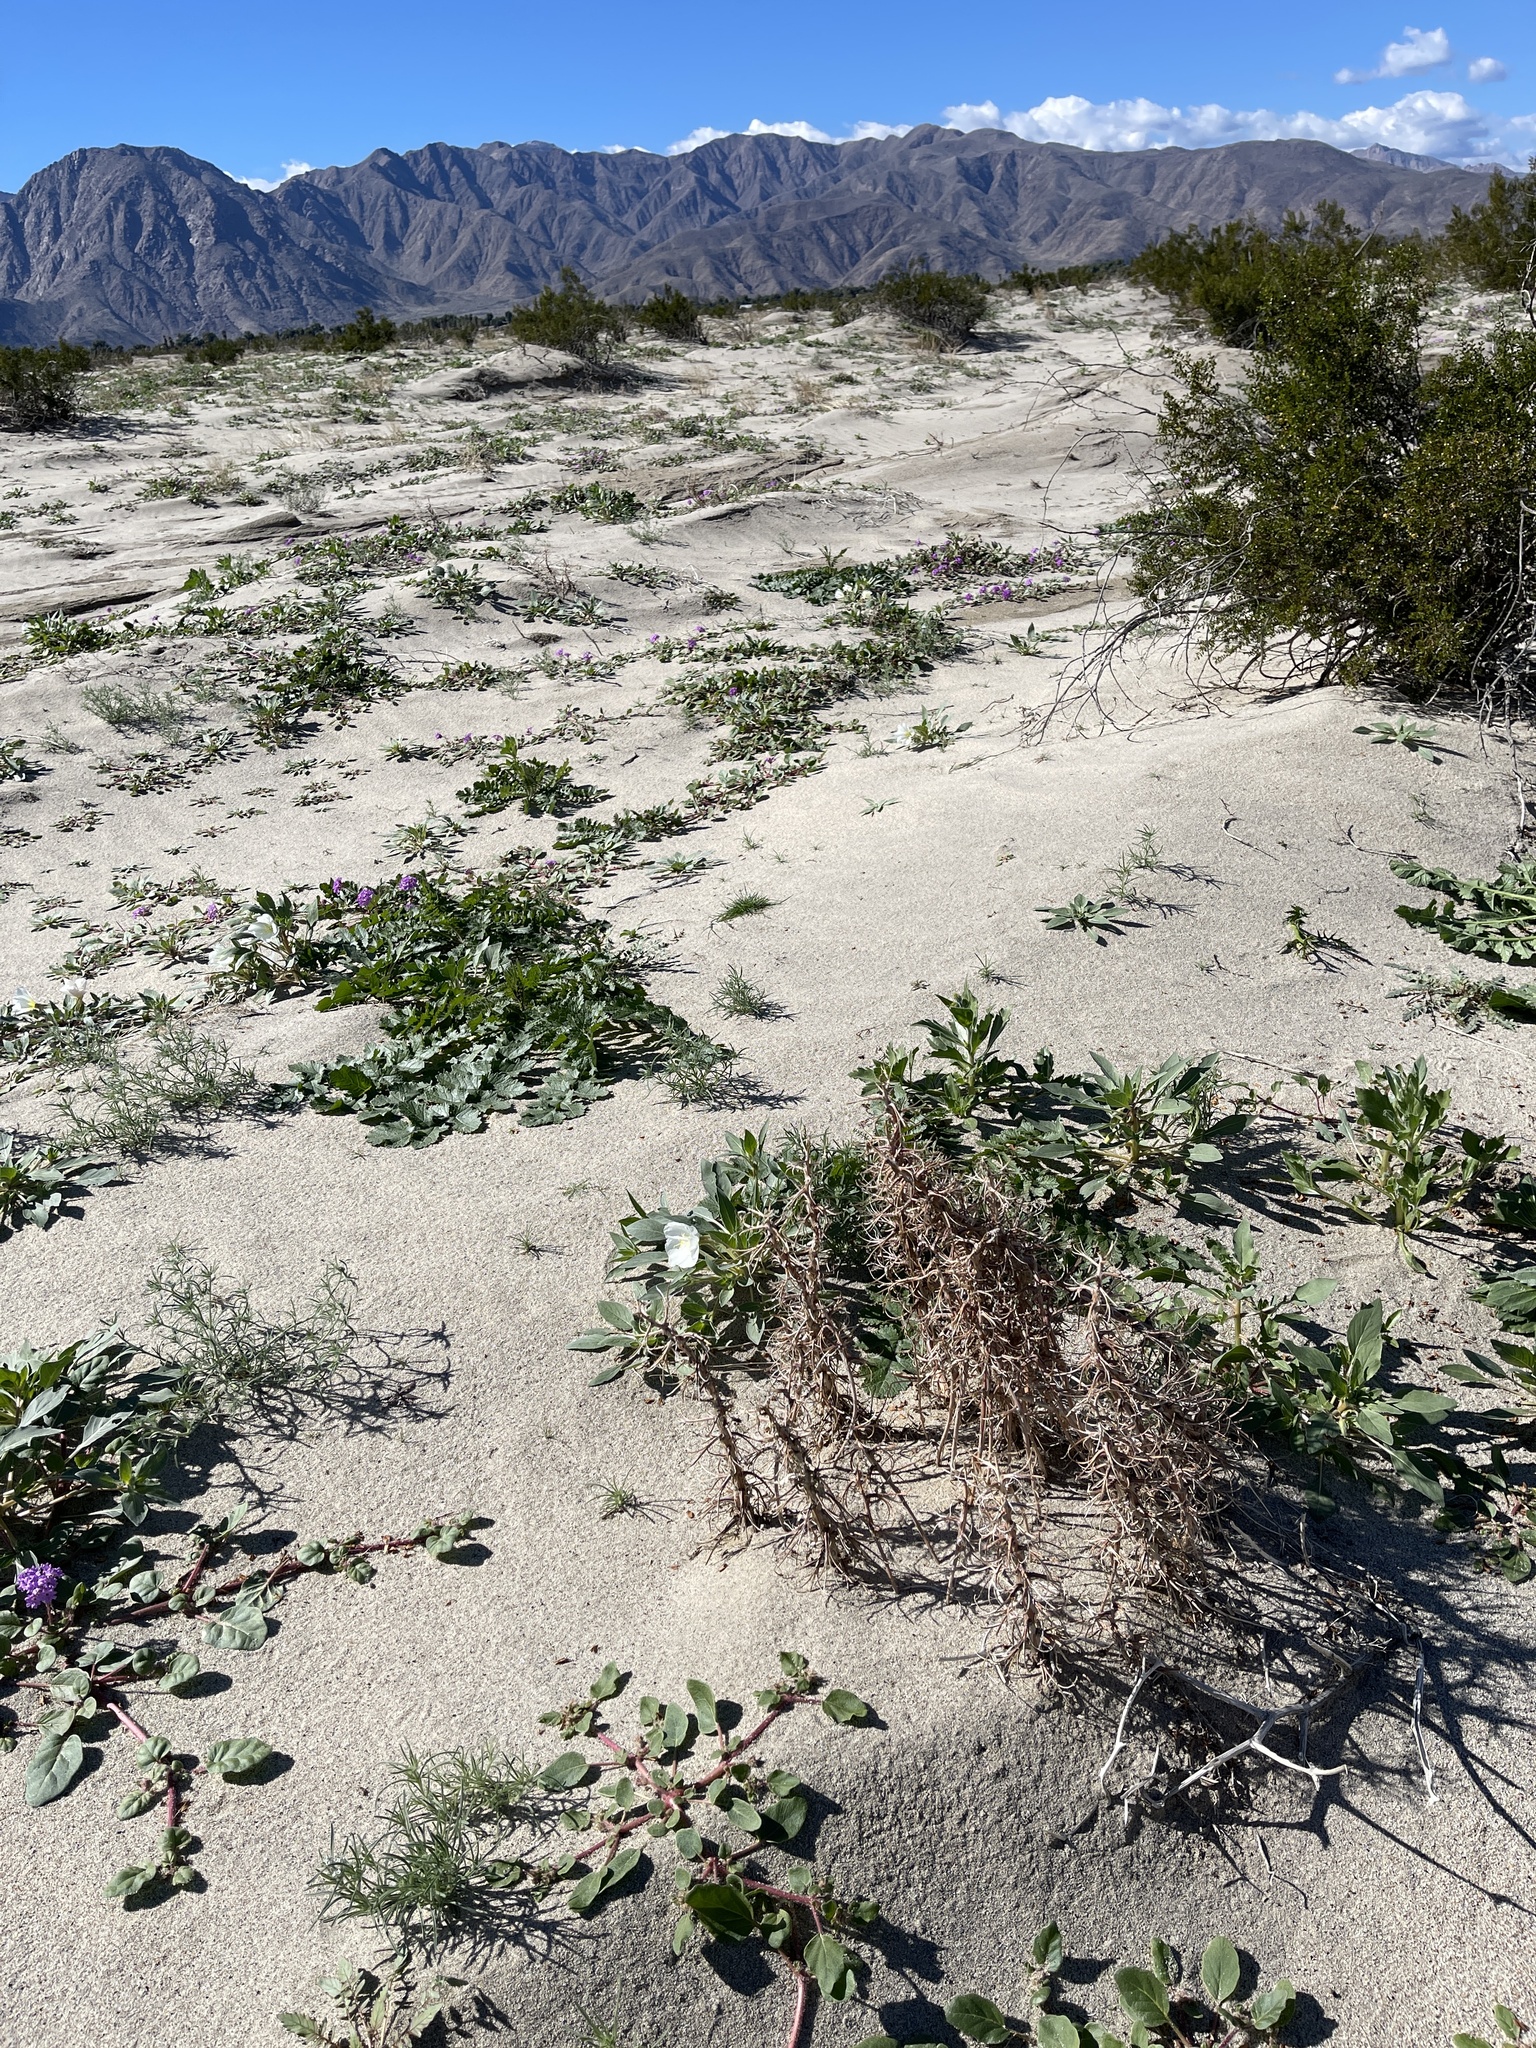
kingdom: Plantae
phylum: Tracheophyta
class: Magnoliopsida
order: Boraginales
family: Boraginaceae
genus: Johnstonella
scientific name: Johnstonella angustifolia
